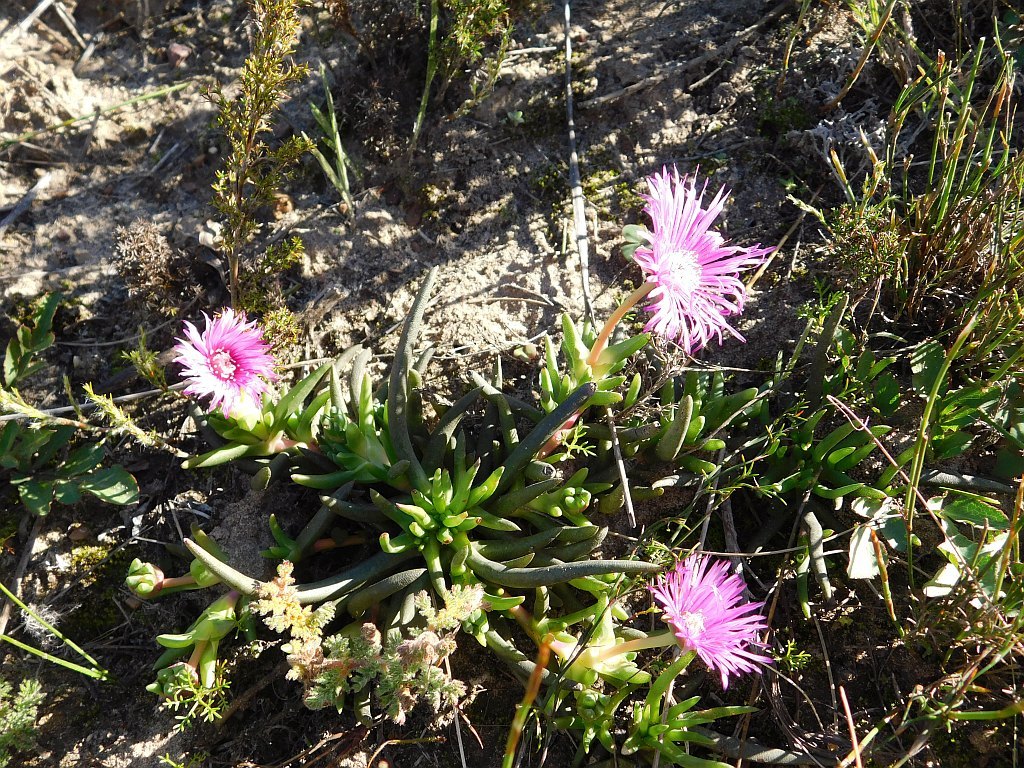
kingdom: Plantae
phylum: Tracheophyta
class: Magnoliopsida
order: Caryophyllales
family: Aizoaceae
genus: Cephalophyllum
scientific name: Cephalophyllum diversiphyllum
